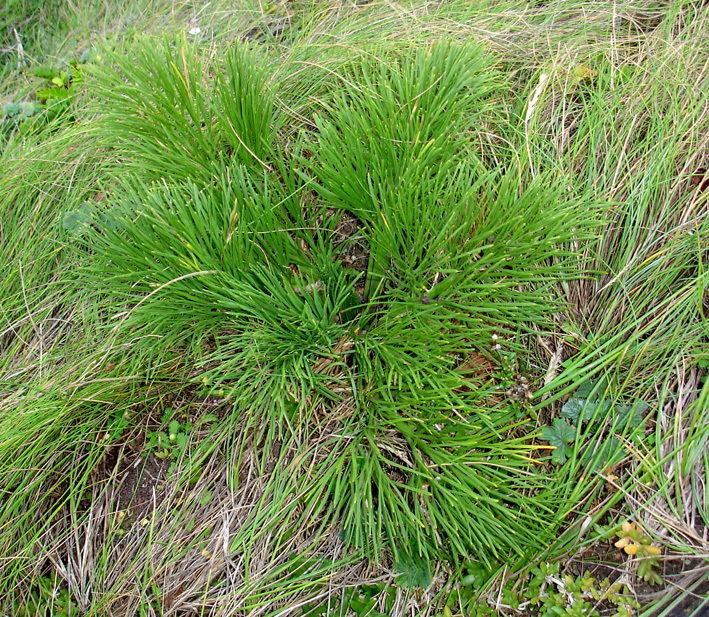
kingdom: Plantae
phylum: Tracheophyta
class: Magnoliopsida
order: Apiales
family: Apiaceae
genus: Aciphylla
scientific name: Aciphylla dieffenbachii
